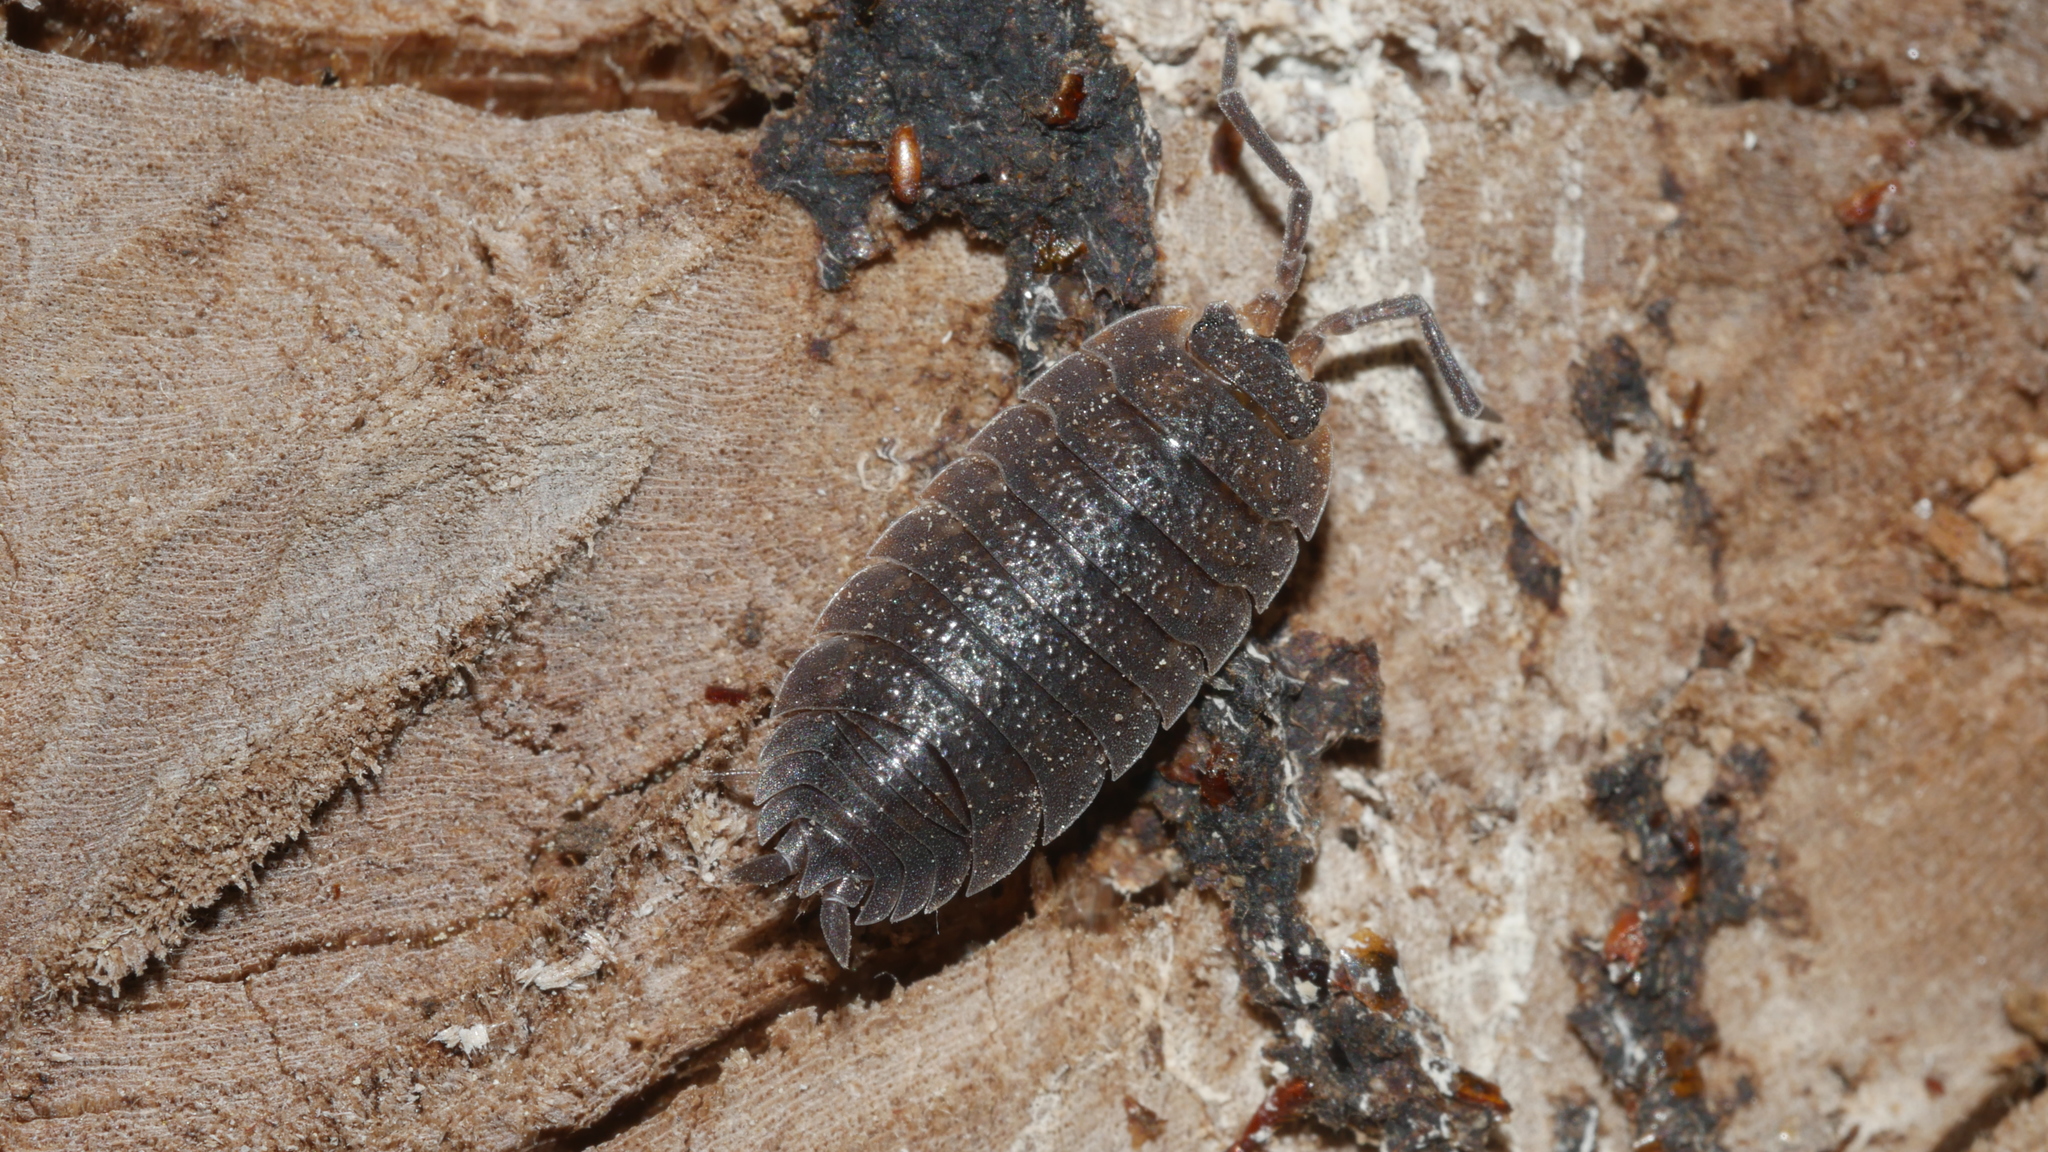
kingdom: Animalia
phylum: Arthropoda
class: Malacostraca
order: Isopoda
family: Porcellionidae
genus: Porcellio
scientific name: Porcellio scaber
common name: Common rough woodlouse
